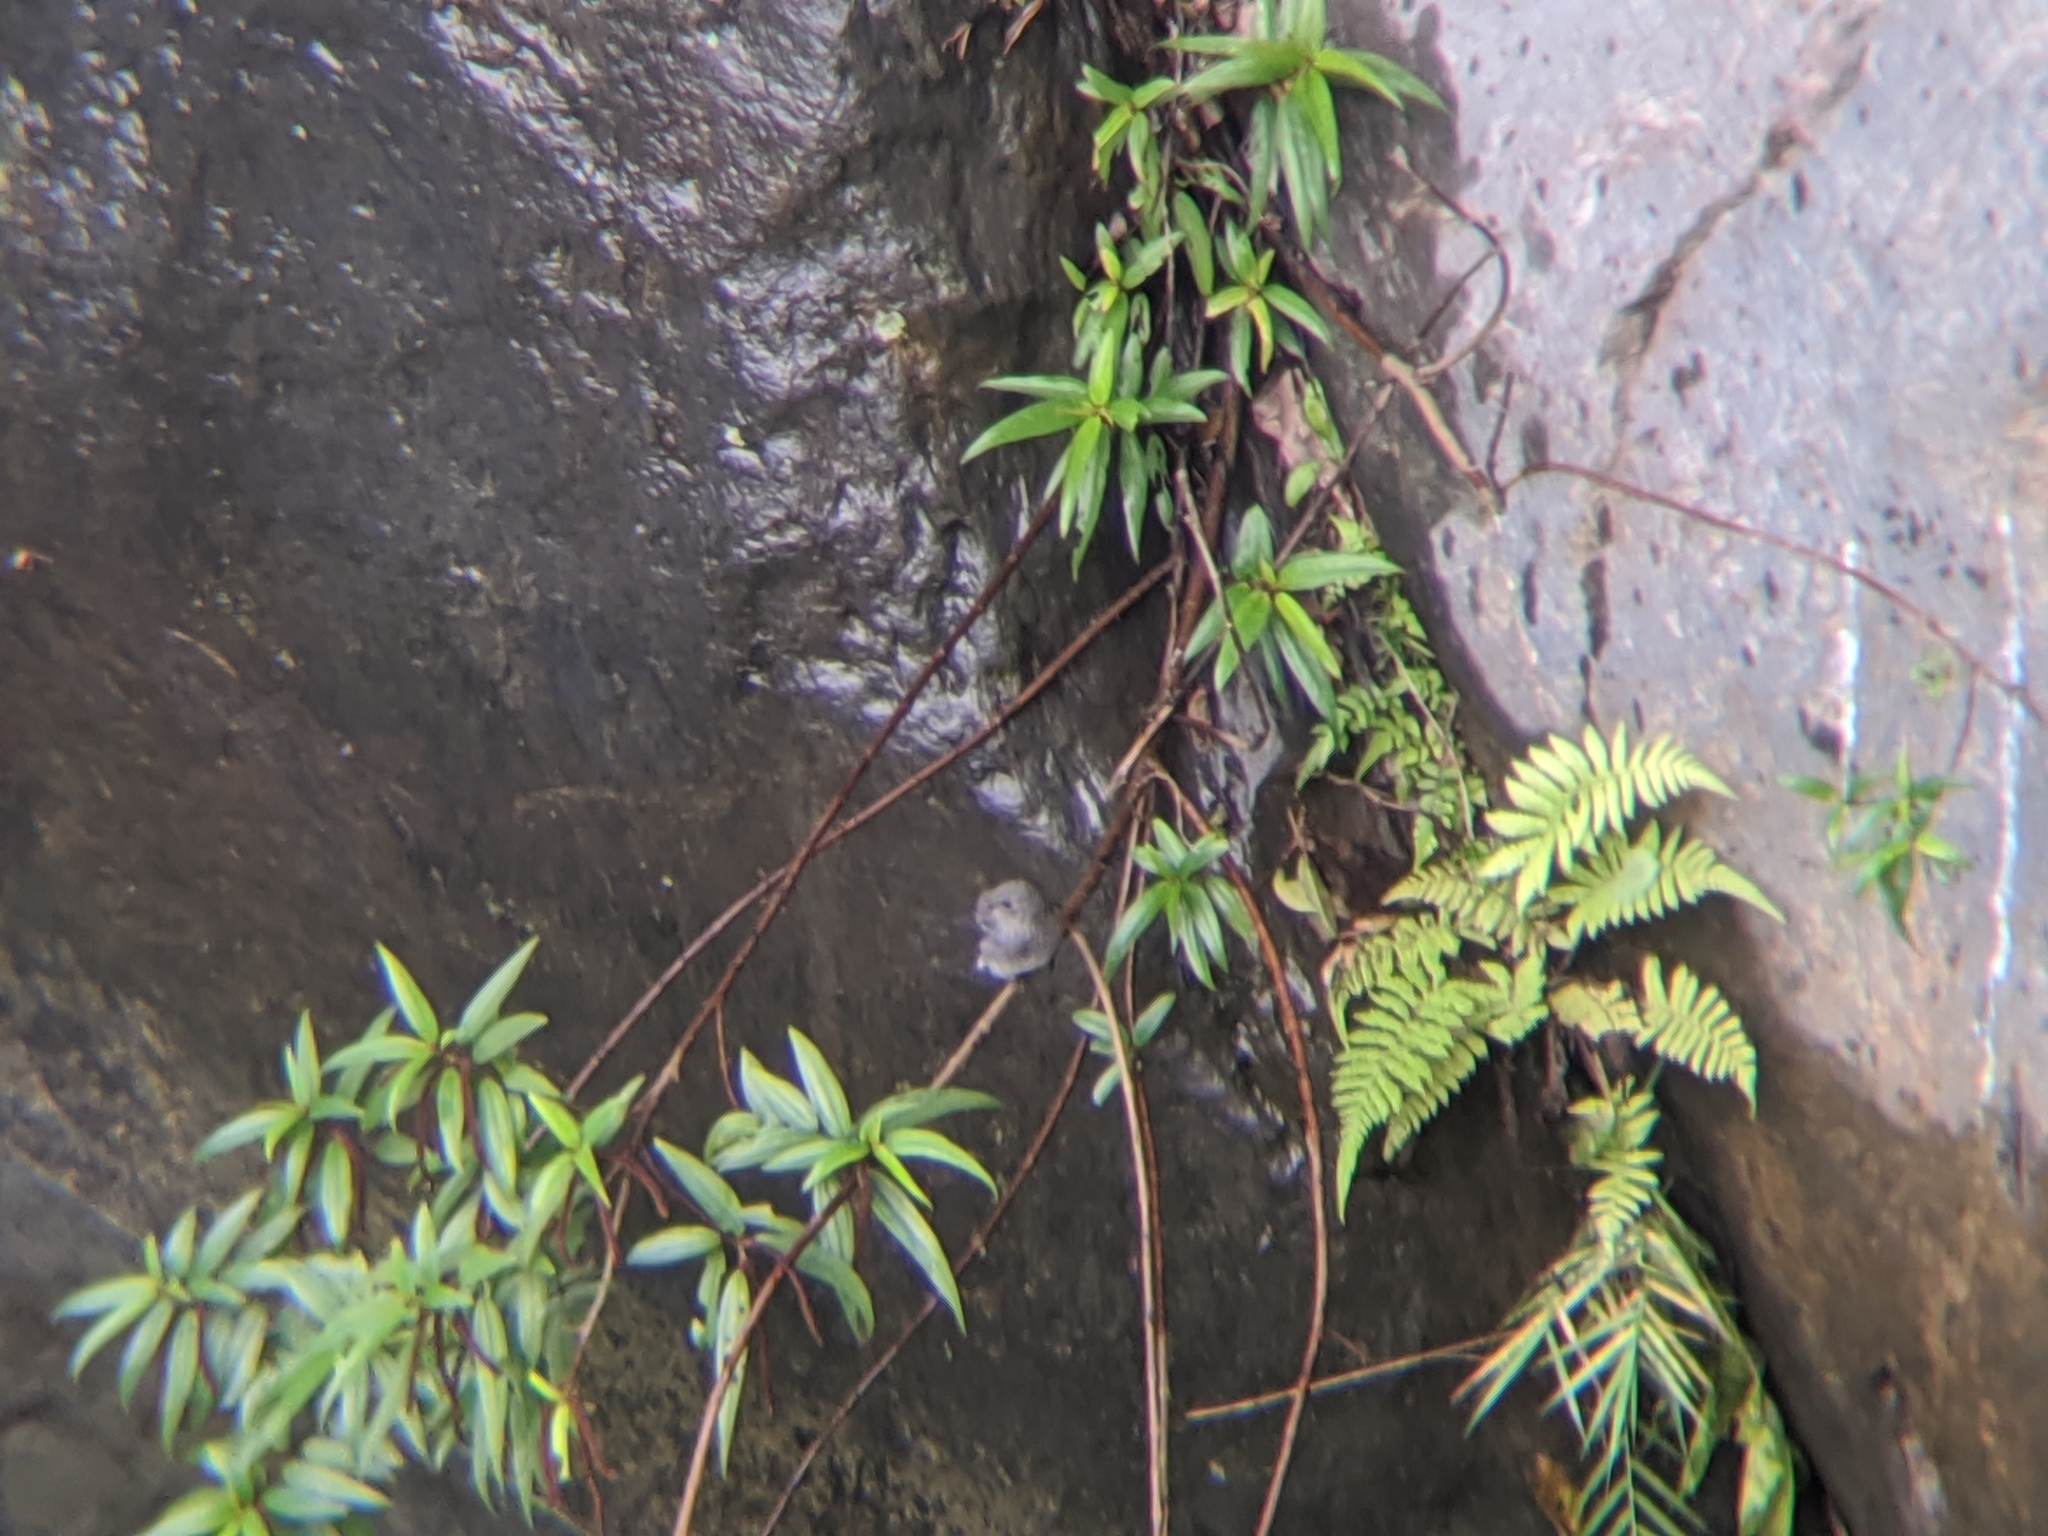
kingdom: Animalia
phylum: Chordata
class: Aves
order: Passeriformes
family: Muscicapidae
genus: Phoenicurus
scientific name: Phoenicurus fuliginosus
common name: Plumbeous water redstart
